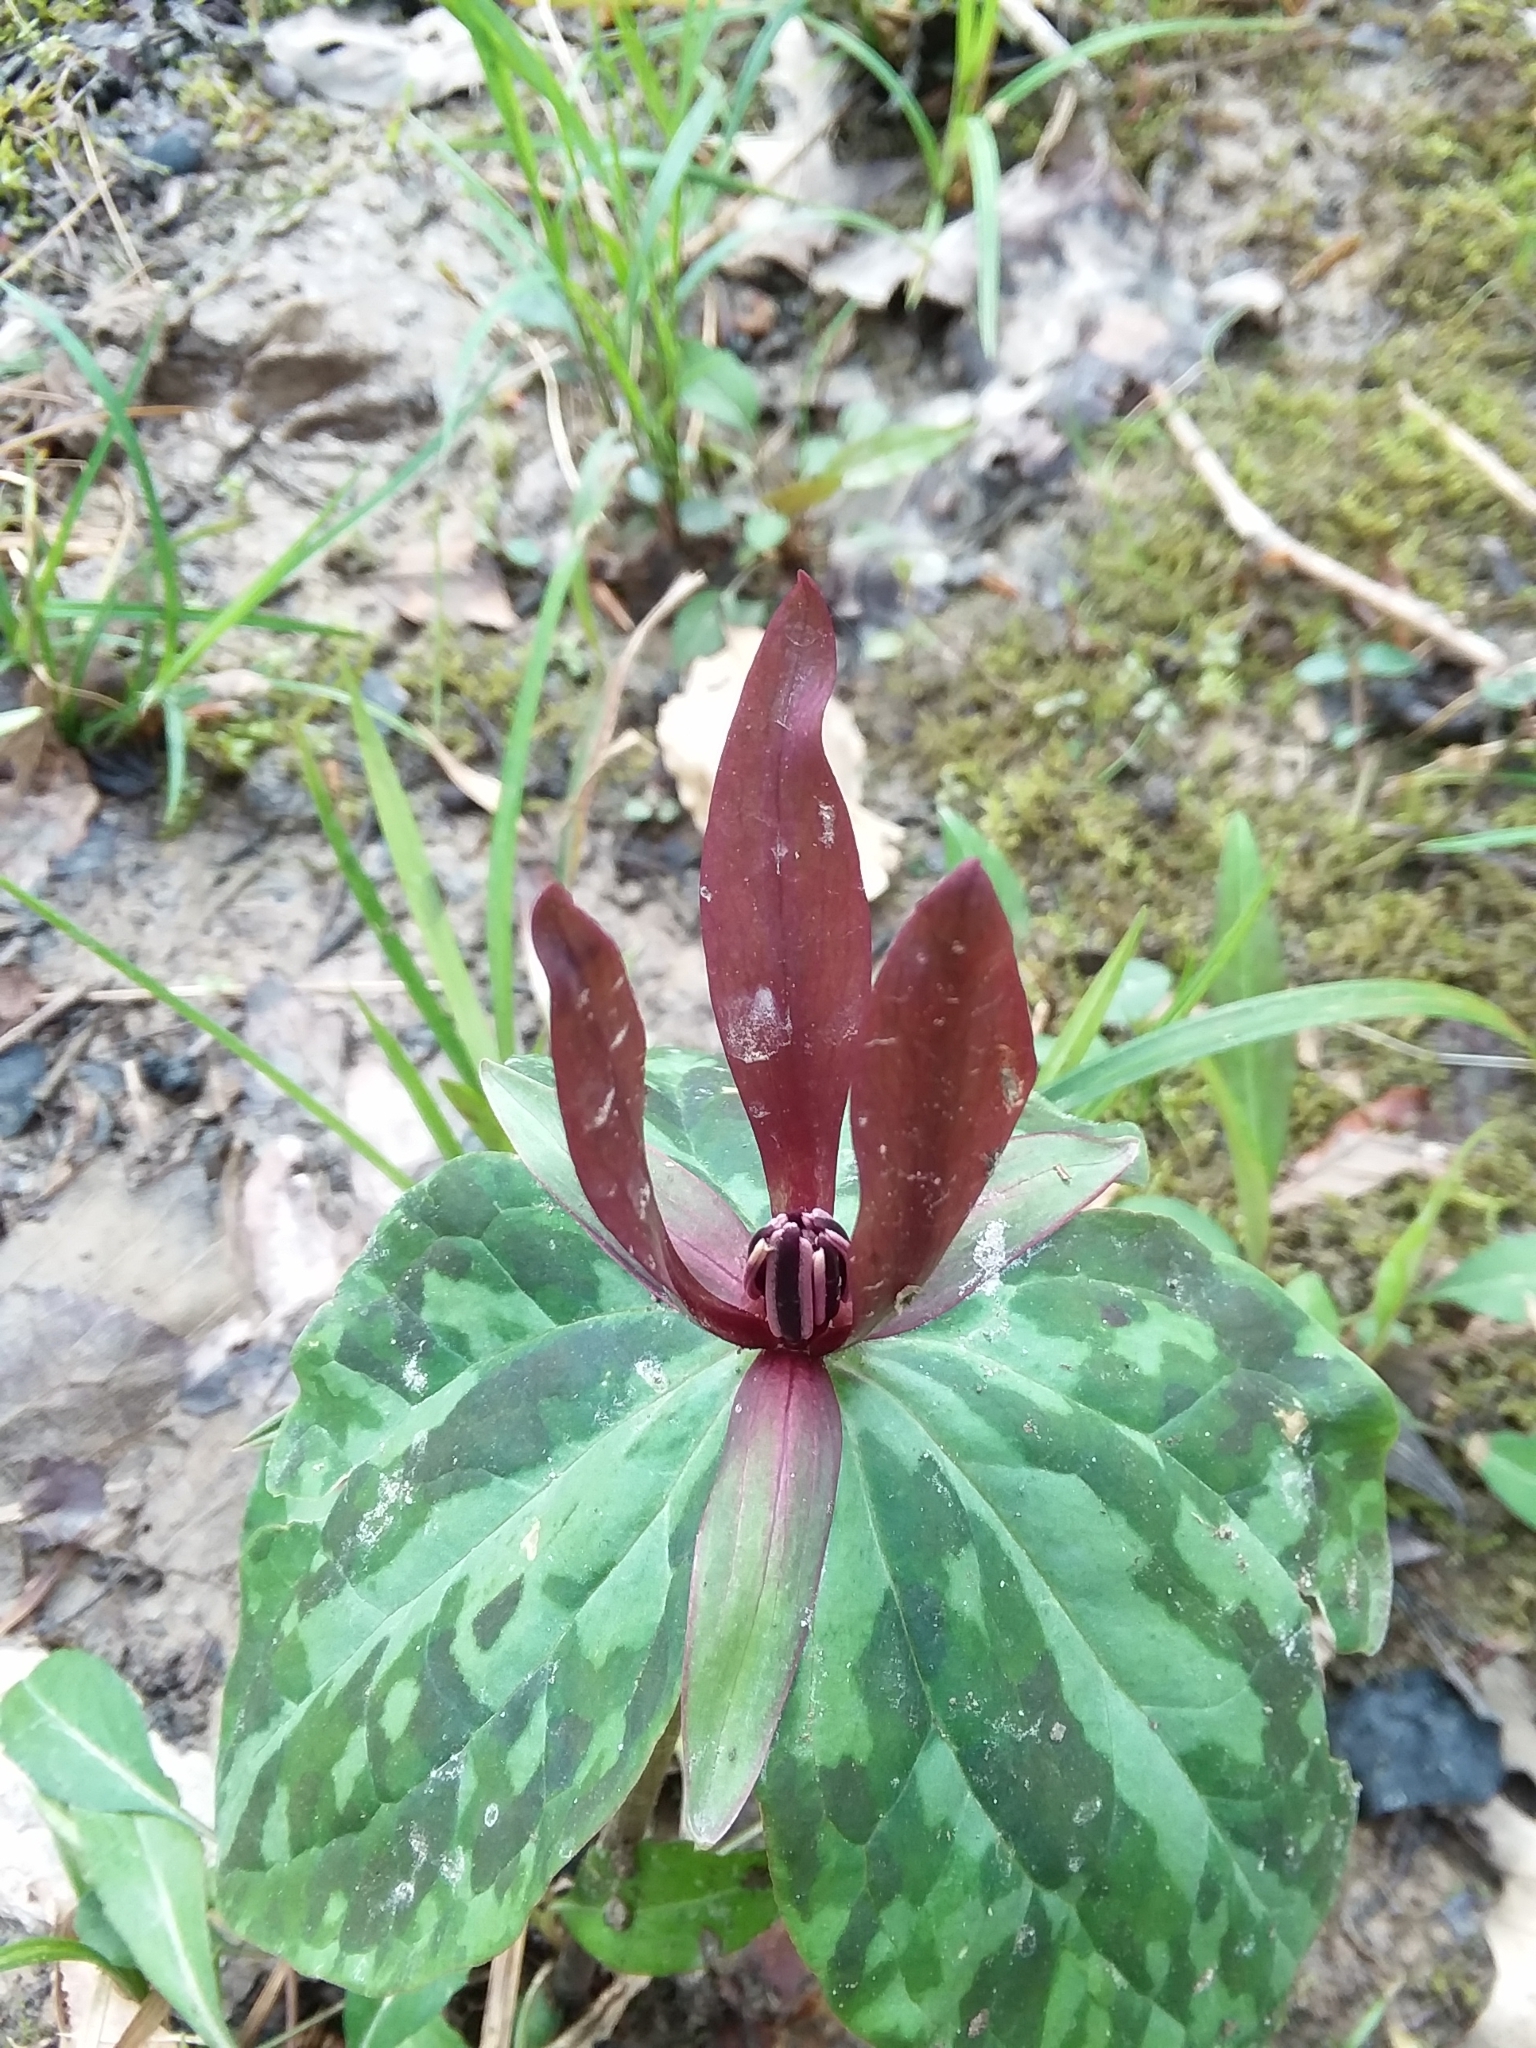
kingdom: Plantae
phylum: Tracheophyta
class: Liliopsida
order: Liliales
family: Melanthiaceae
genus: Trillium
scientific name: Trillium cuneatum
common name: Cuneate trillium
